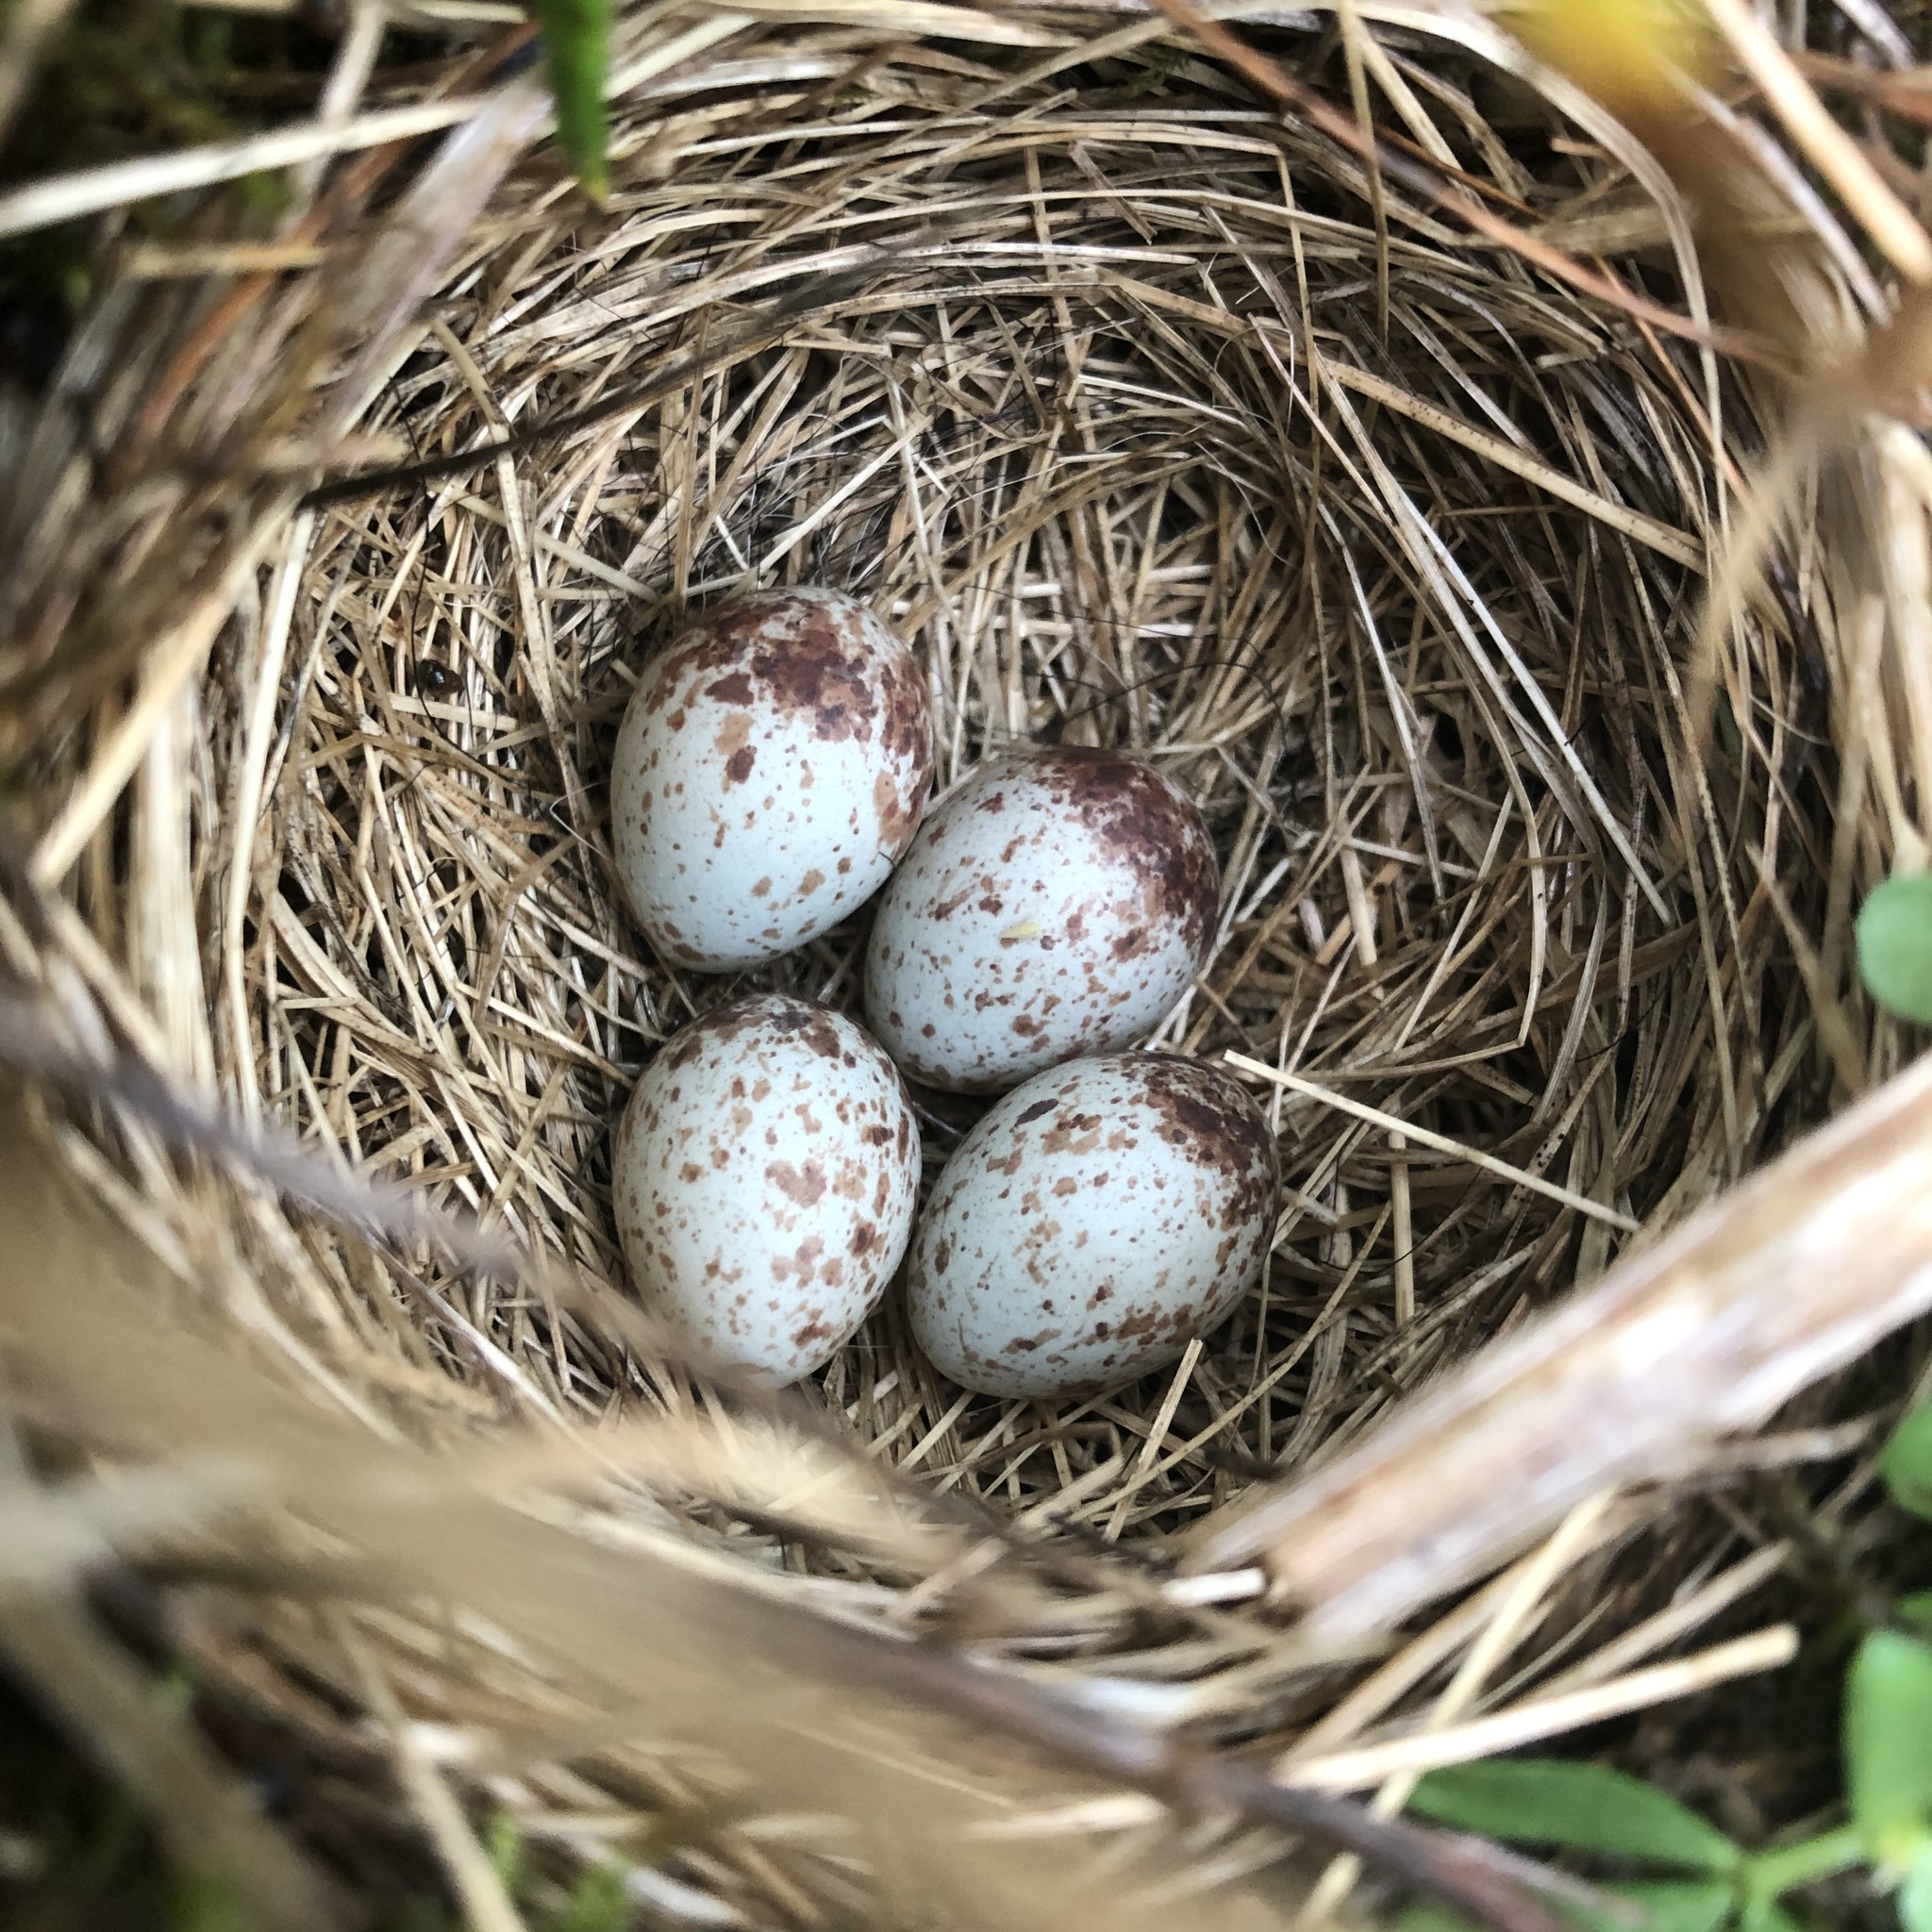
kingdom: Animalia
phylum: Chordata
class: Aves
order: Passeriformes
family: Passerellidae
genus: Passerculus
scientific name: Passerculus sandwichensis
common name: Savannah sparrow
